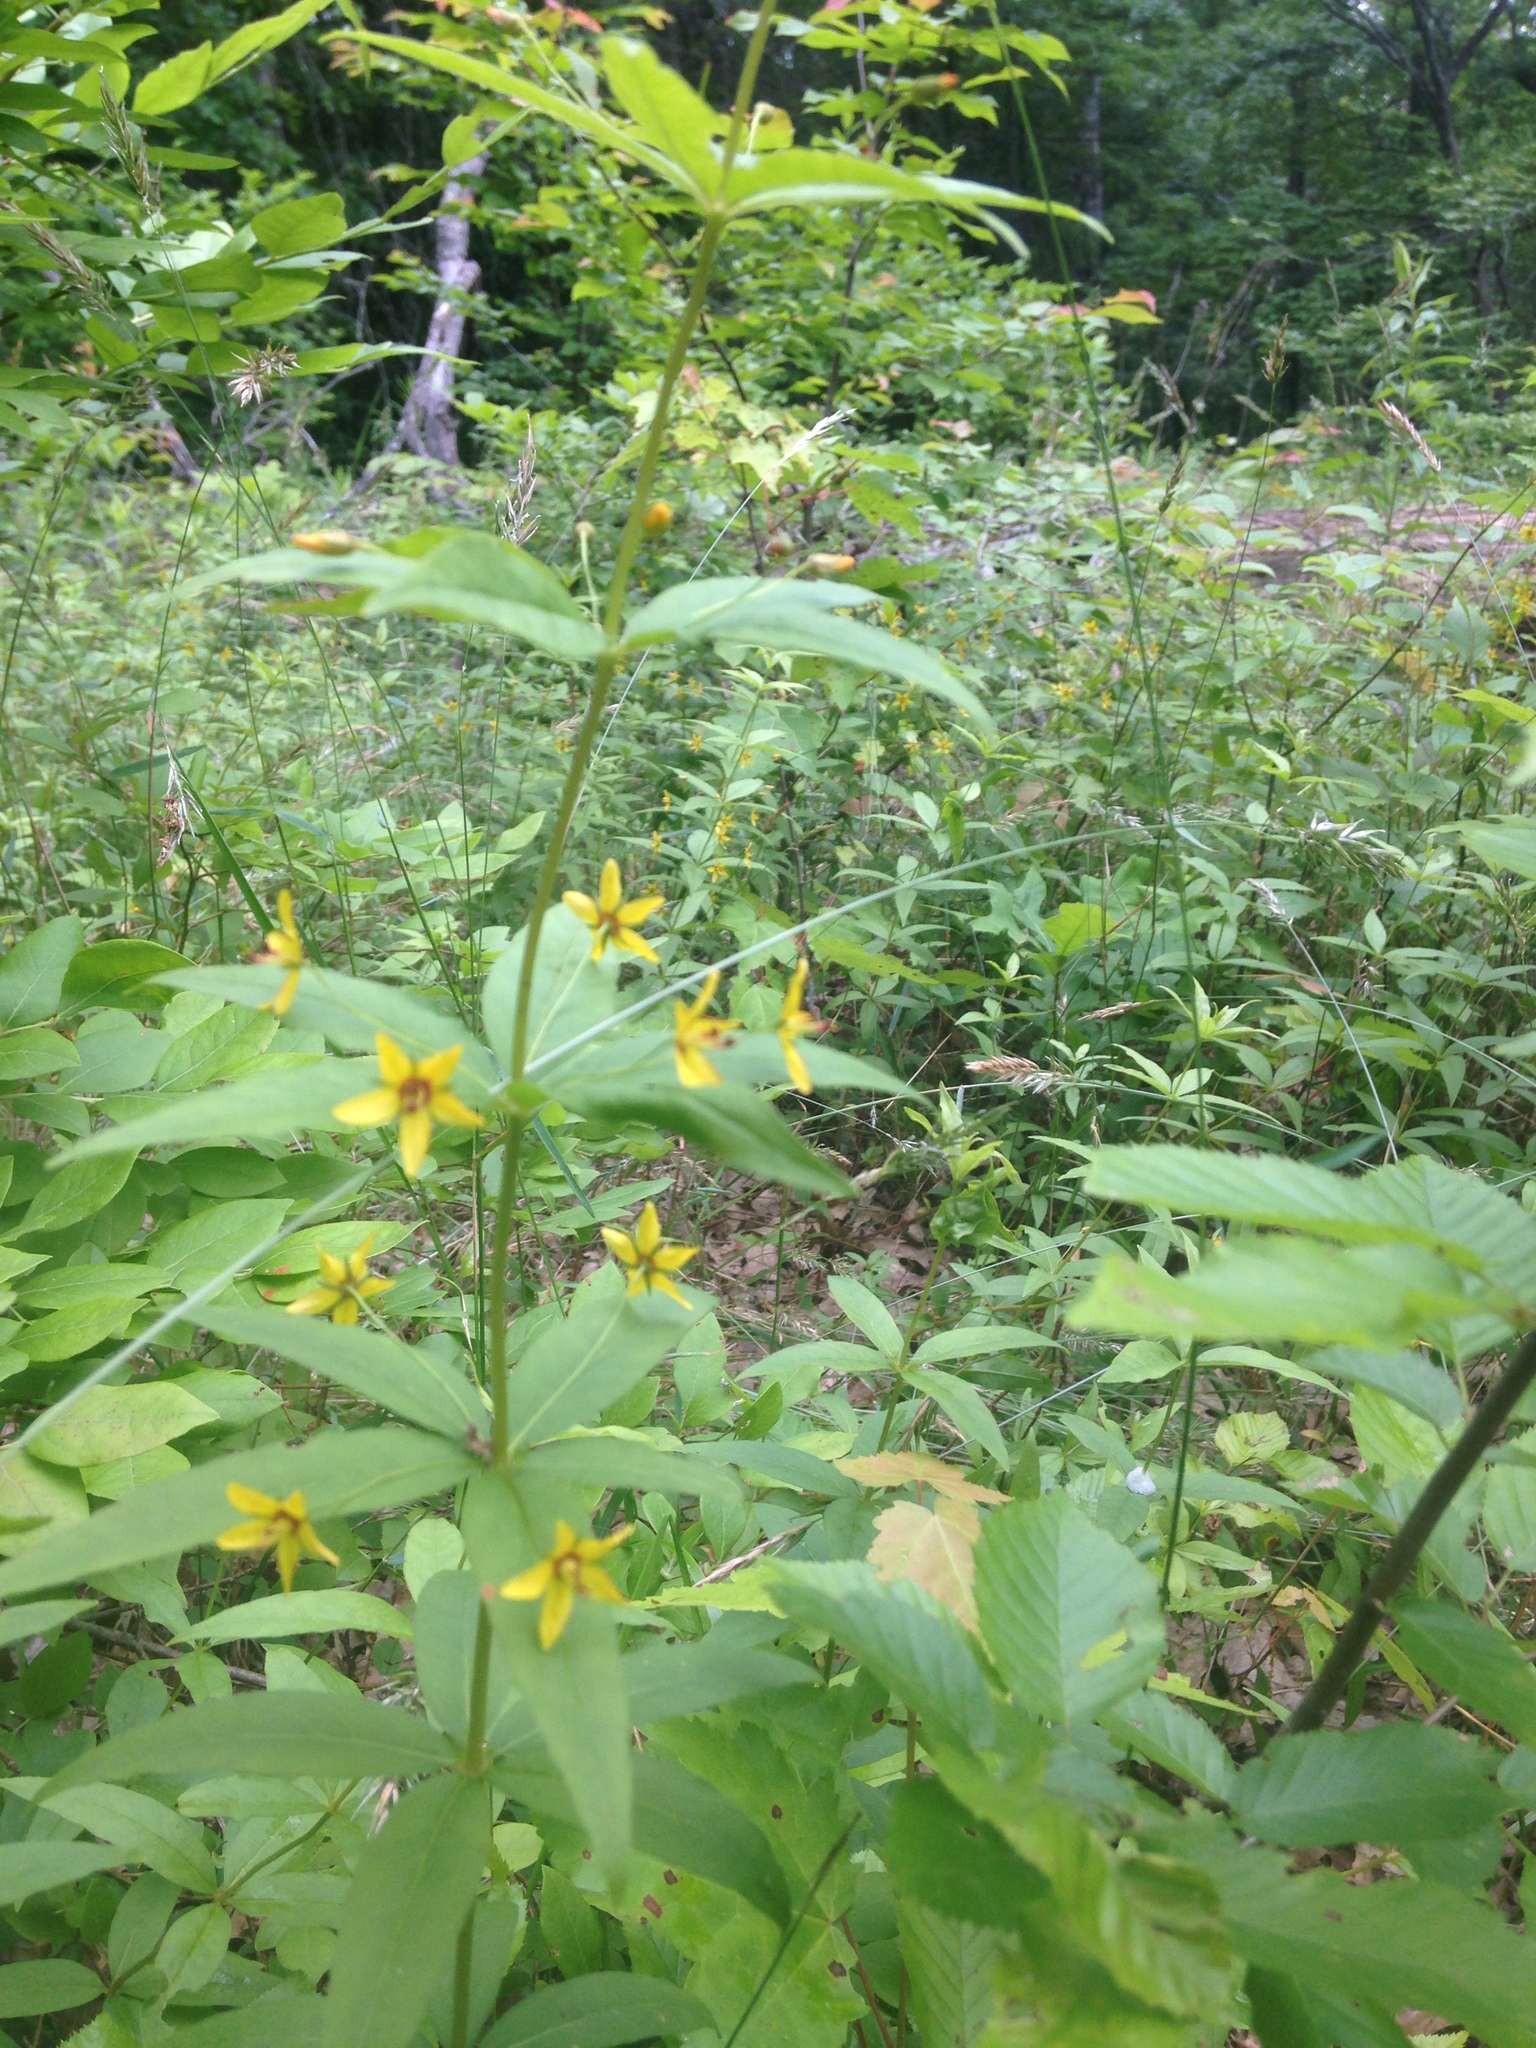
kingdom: Plantae
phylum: Tracheophyta
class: Magnoliopsida
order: Ericales
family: Primulaceae
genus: Lysimachia
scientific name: Lysimachia quadrifolia
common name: Whorled loosestrife
